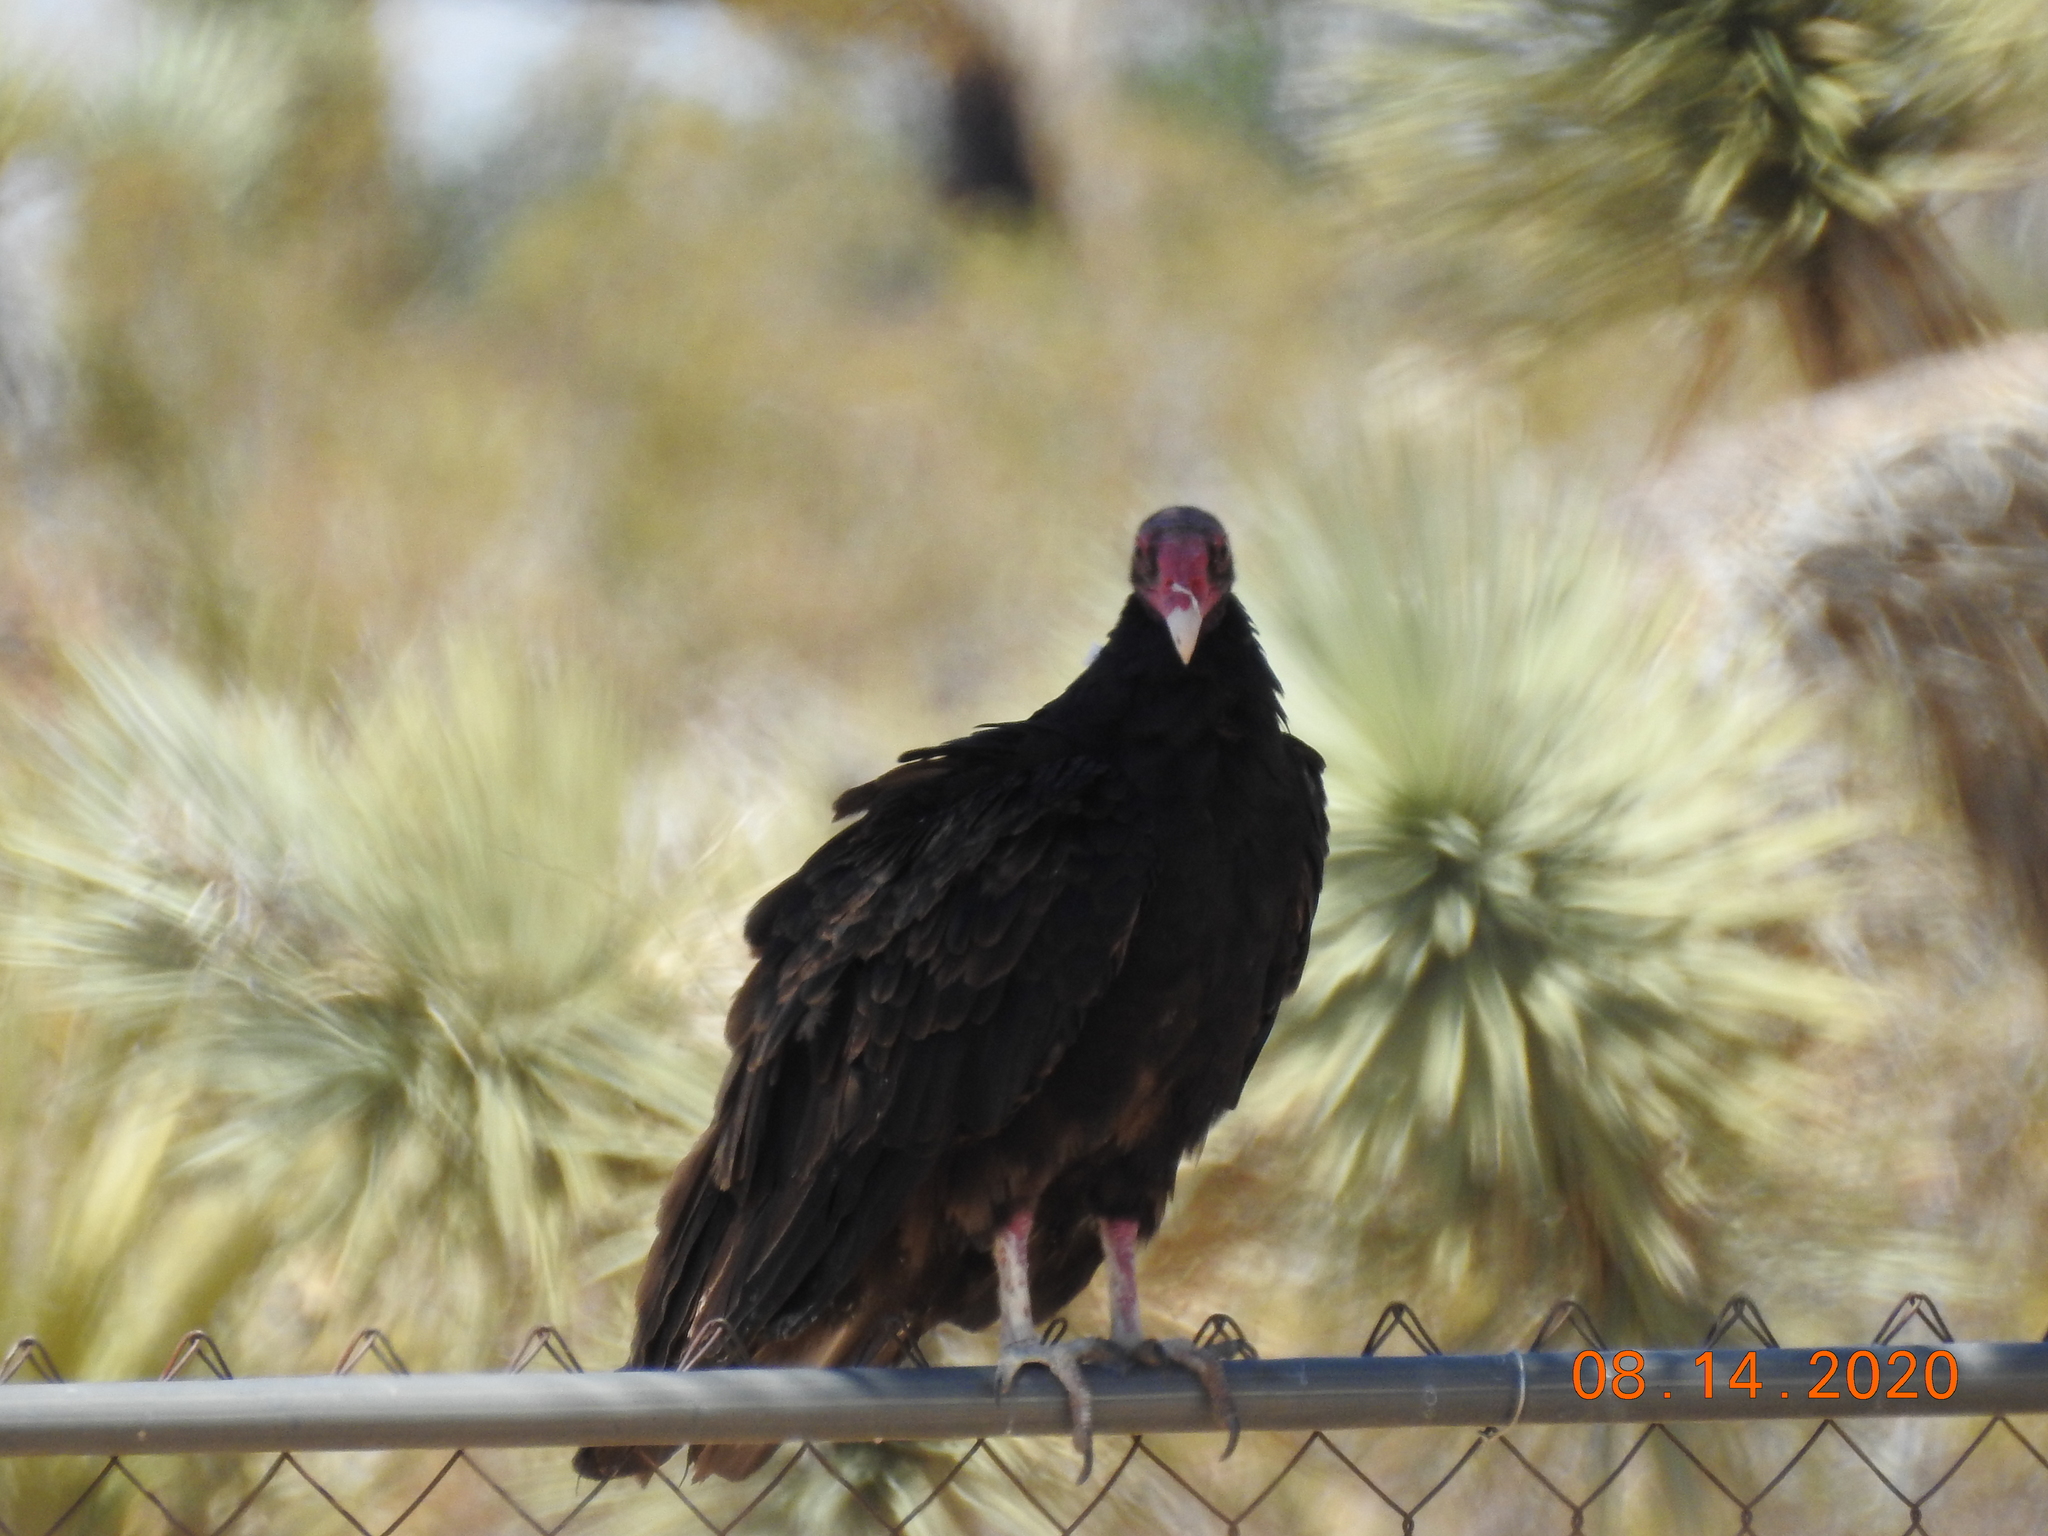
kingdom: Animalia
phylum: Chordata
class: Aves
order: Accipitriformes
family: Cathartidae
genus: Cathartes
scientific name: Cathartes aura
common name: Turkey vulture
